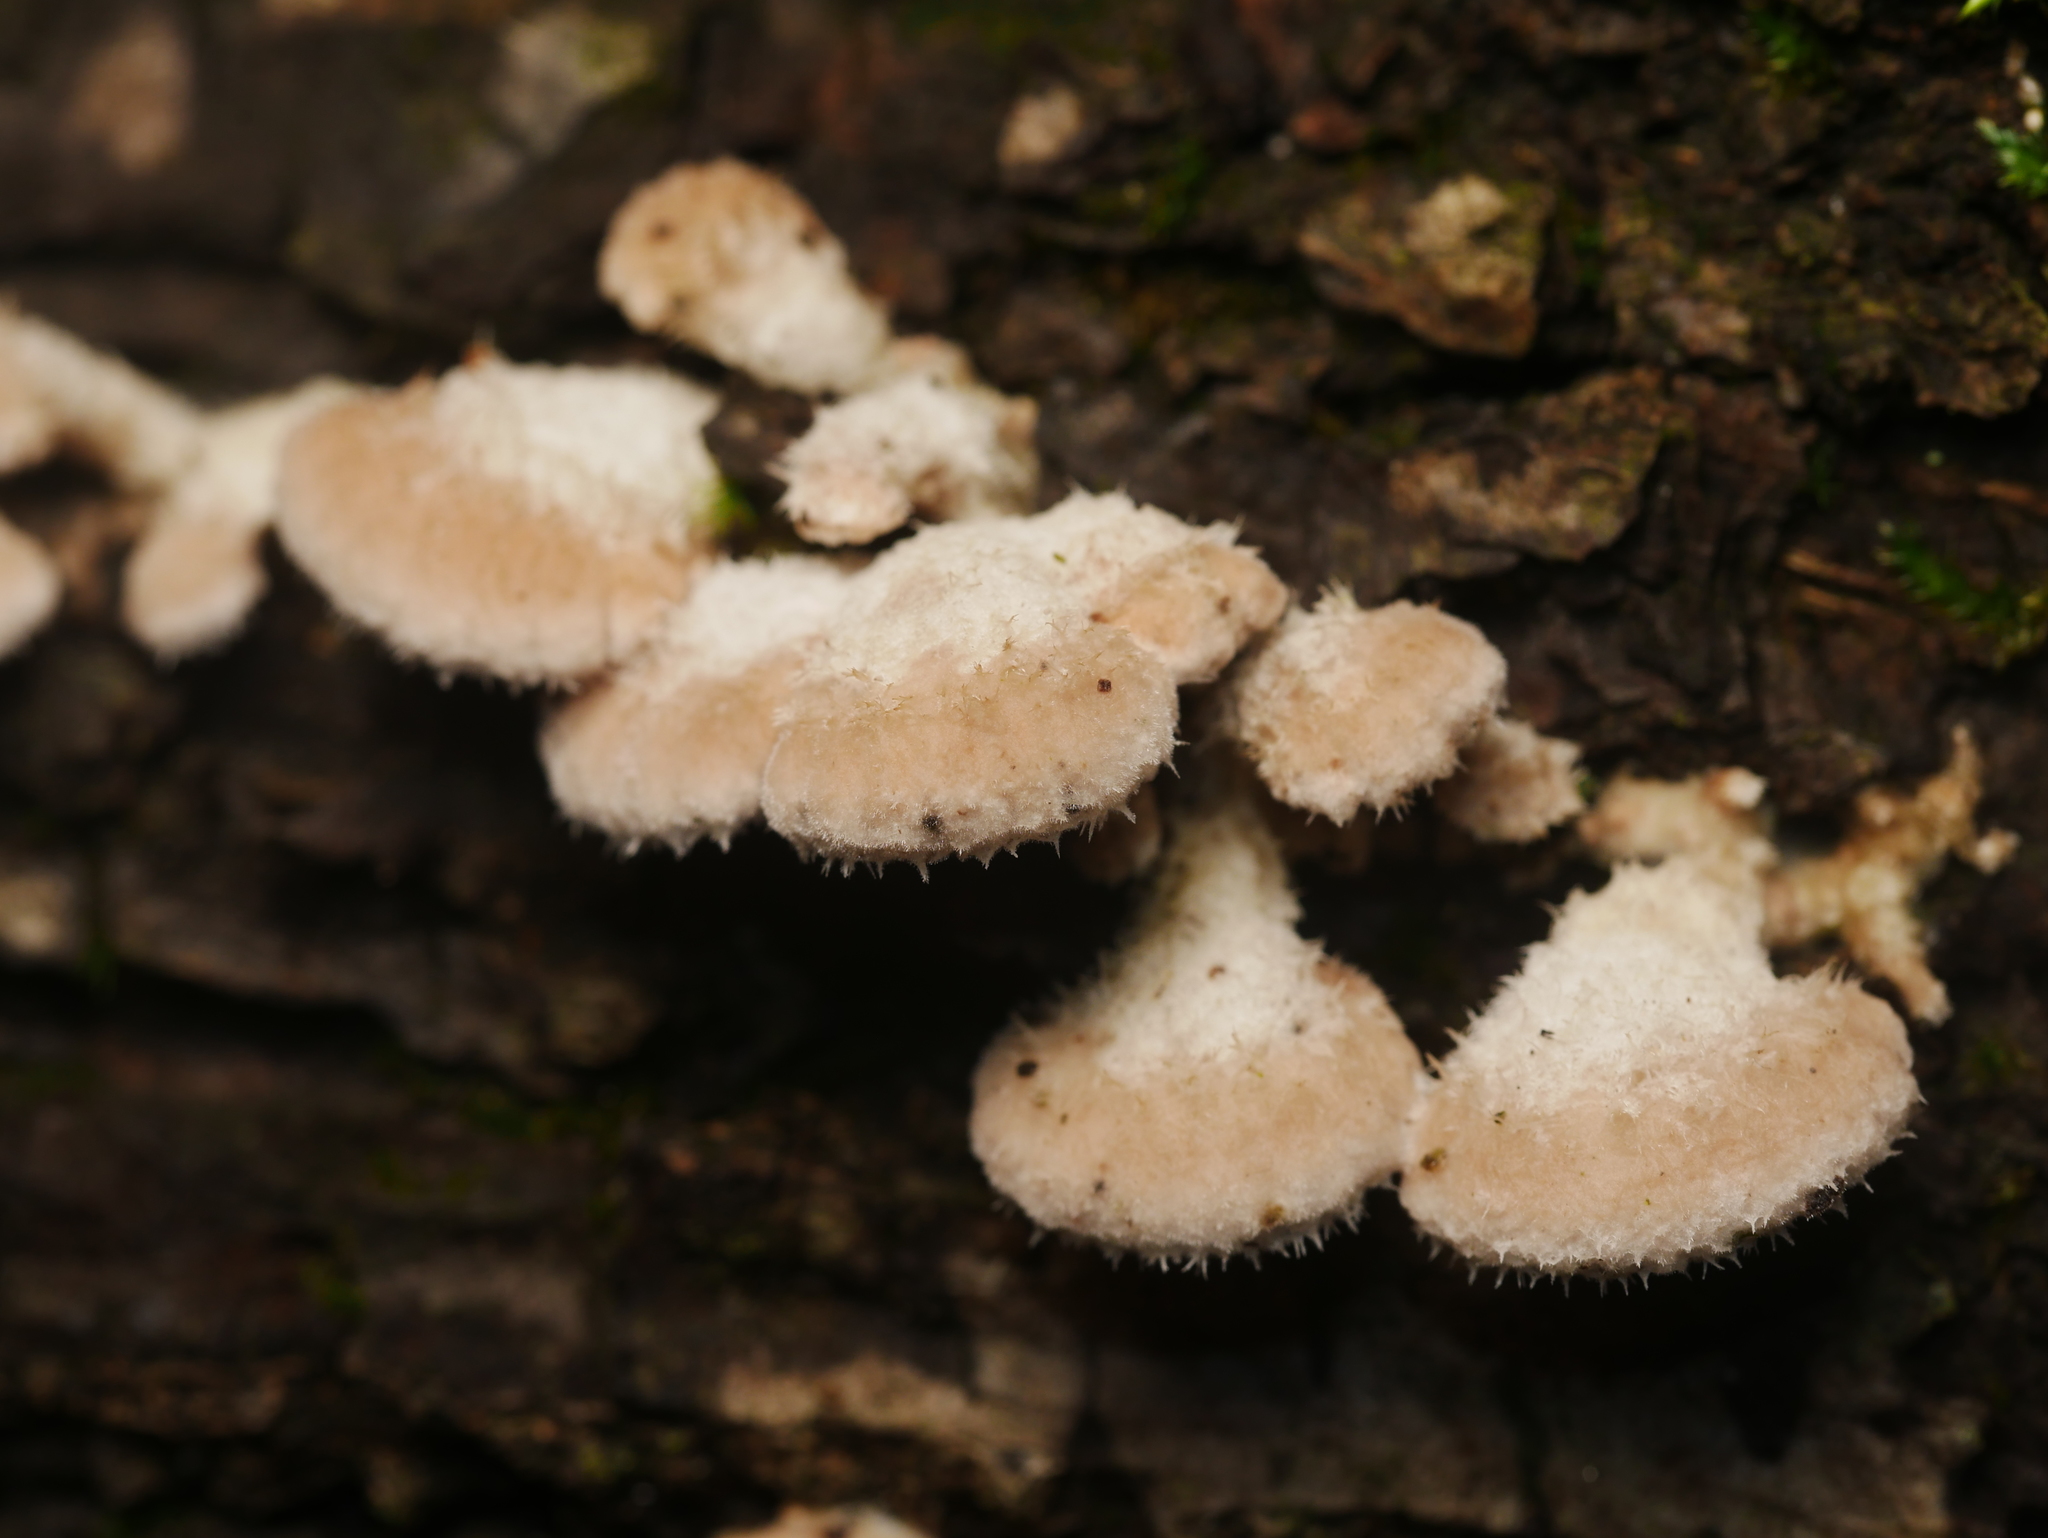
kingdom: Fungi
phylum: Basidiomycota
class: Agaricomycetes
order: Agaricales
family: Schizophyllaceae
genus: Schizophyllum
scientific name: Schizophyllum commune
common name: Common porecrust
